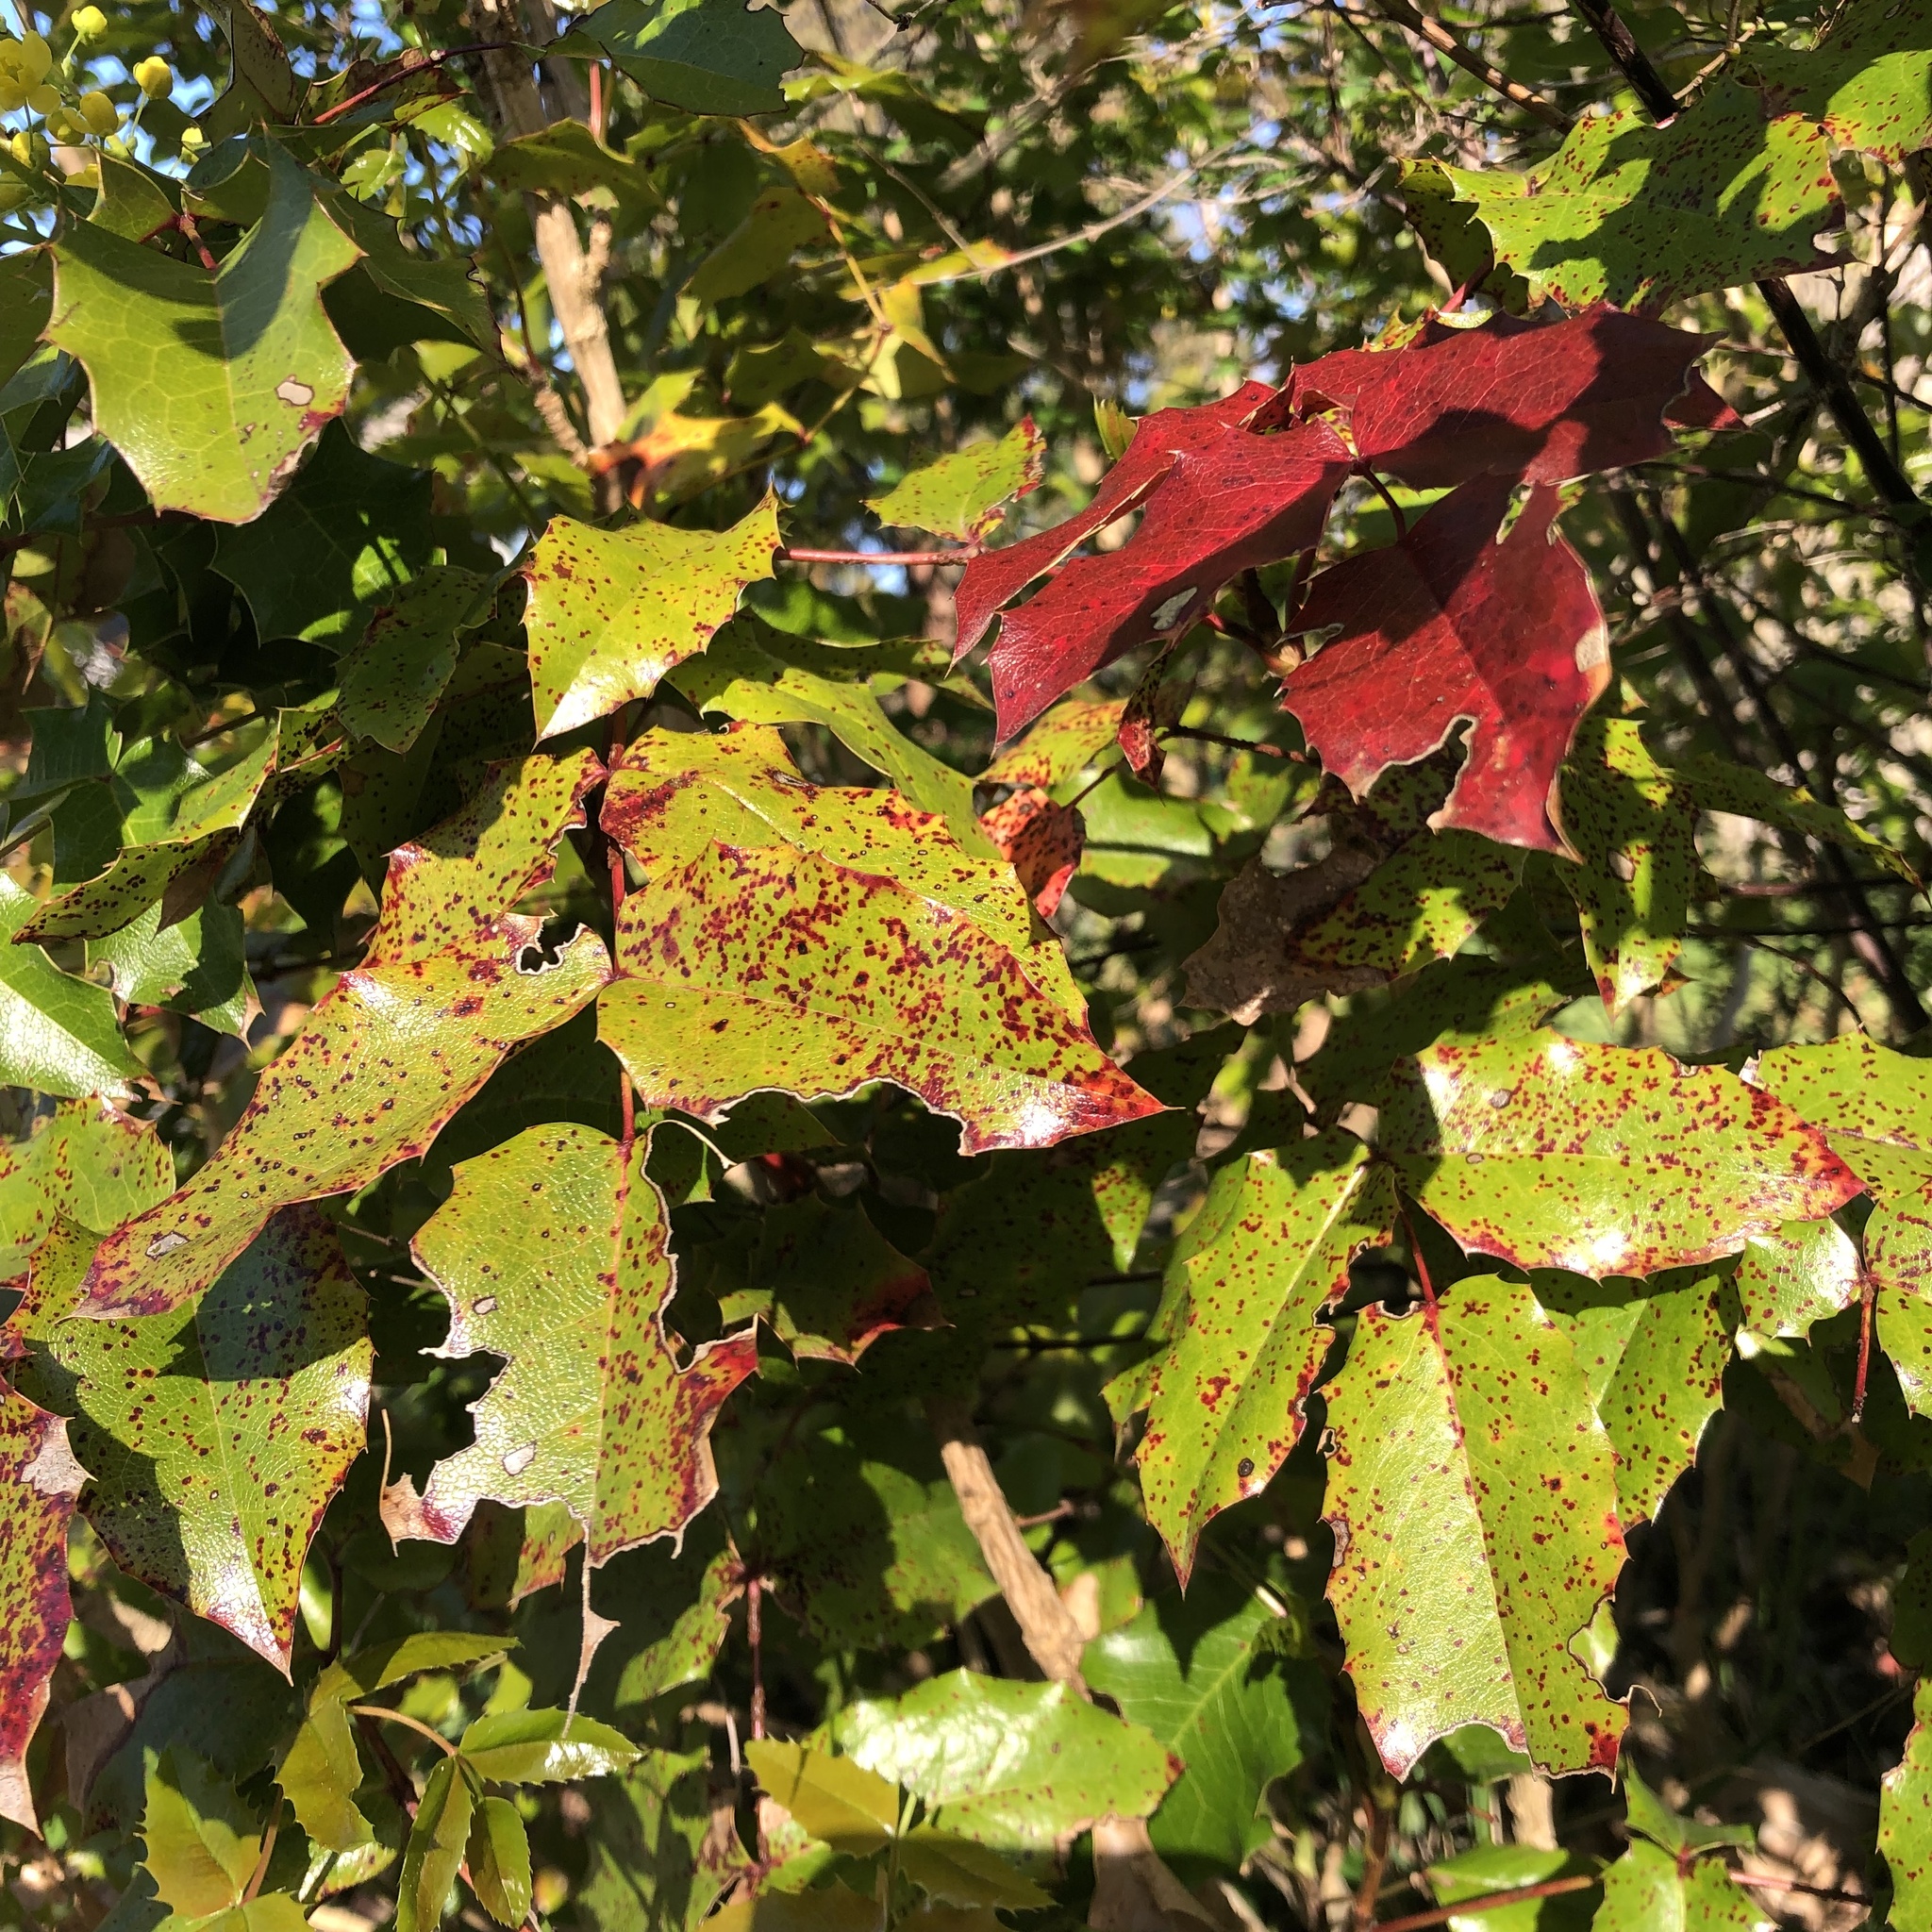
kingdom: Fungi
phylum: Basidiomycota
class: Pucciniomycetes
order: Pucciniales
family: Pucciniaceae
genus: Cumminsiella
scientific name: Cumminsiella mirabilissima
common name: Mahonia rust
